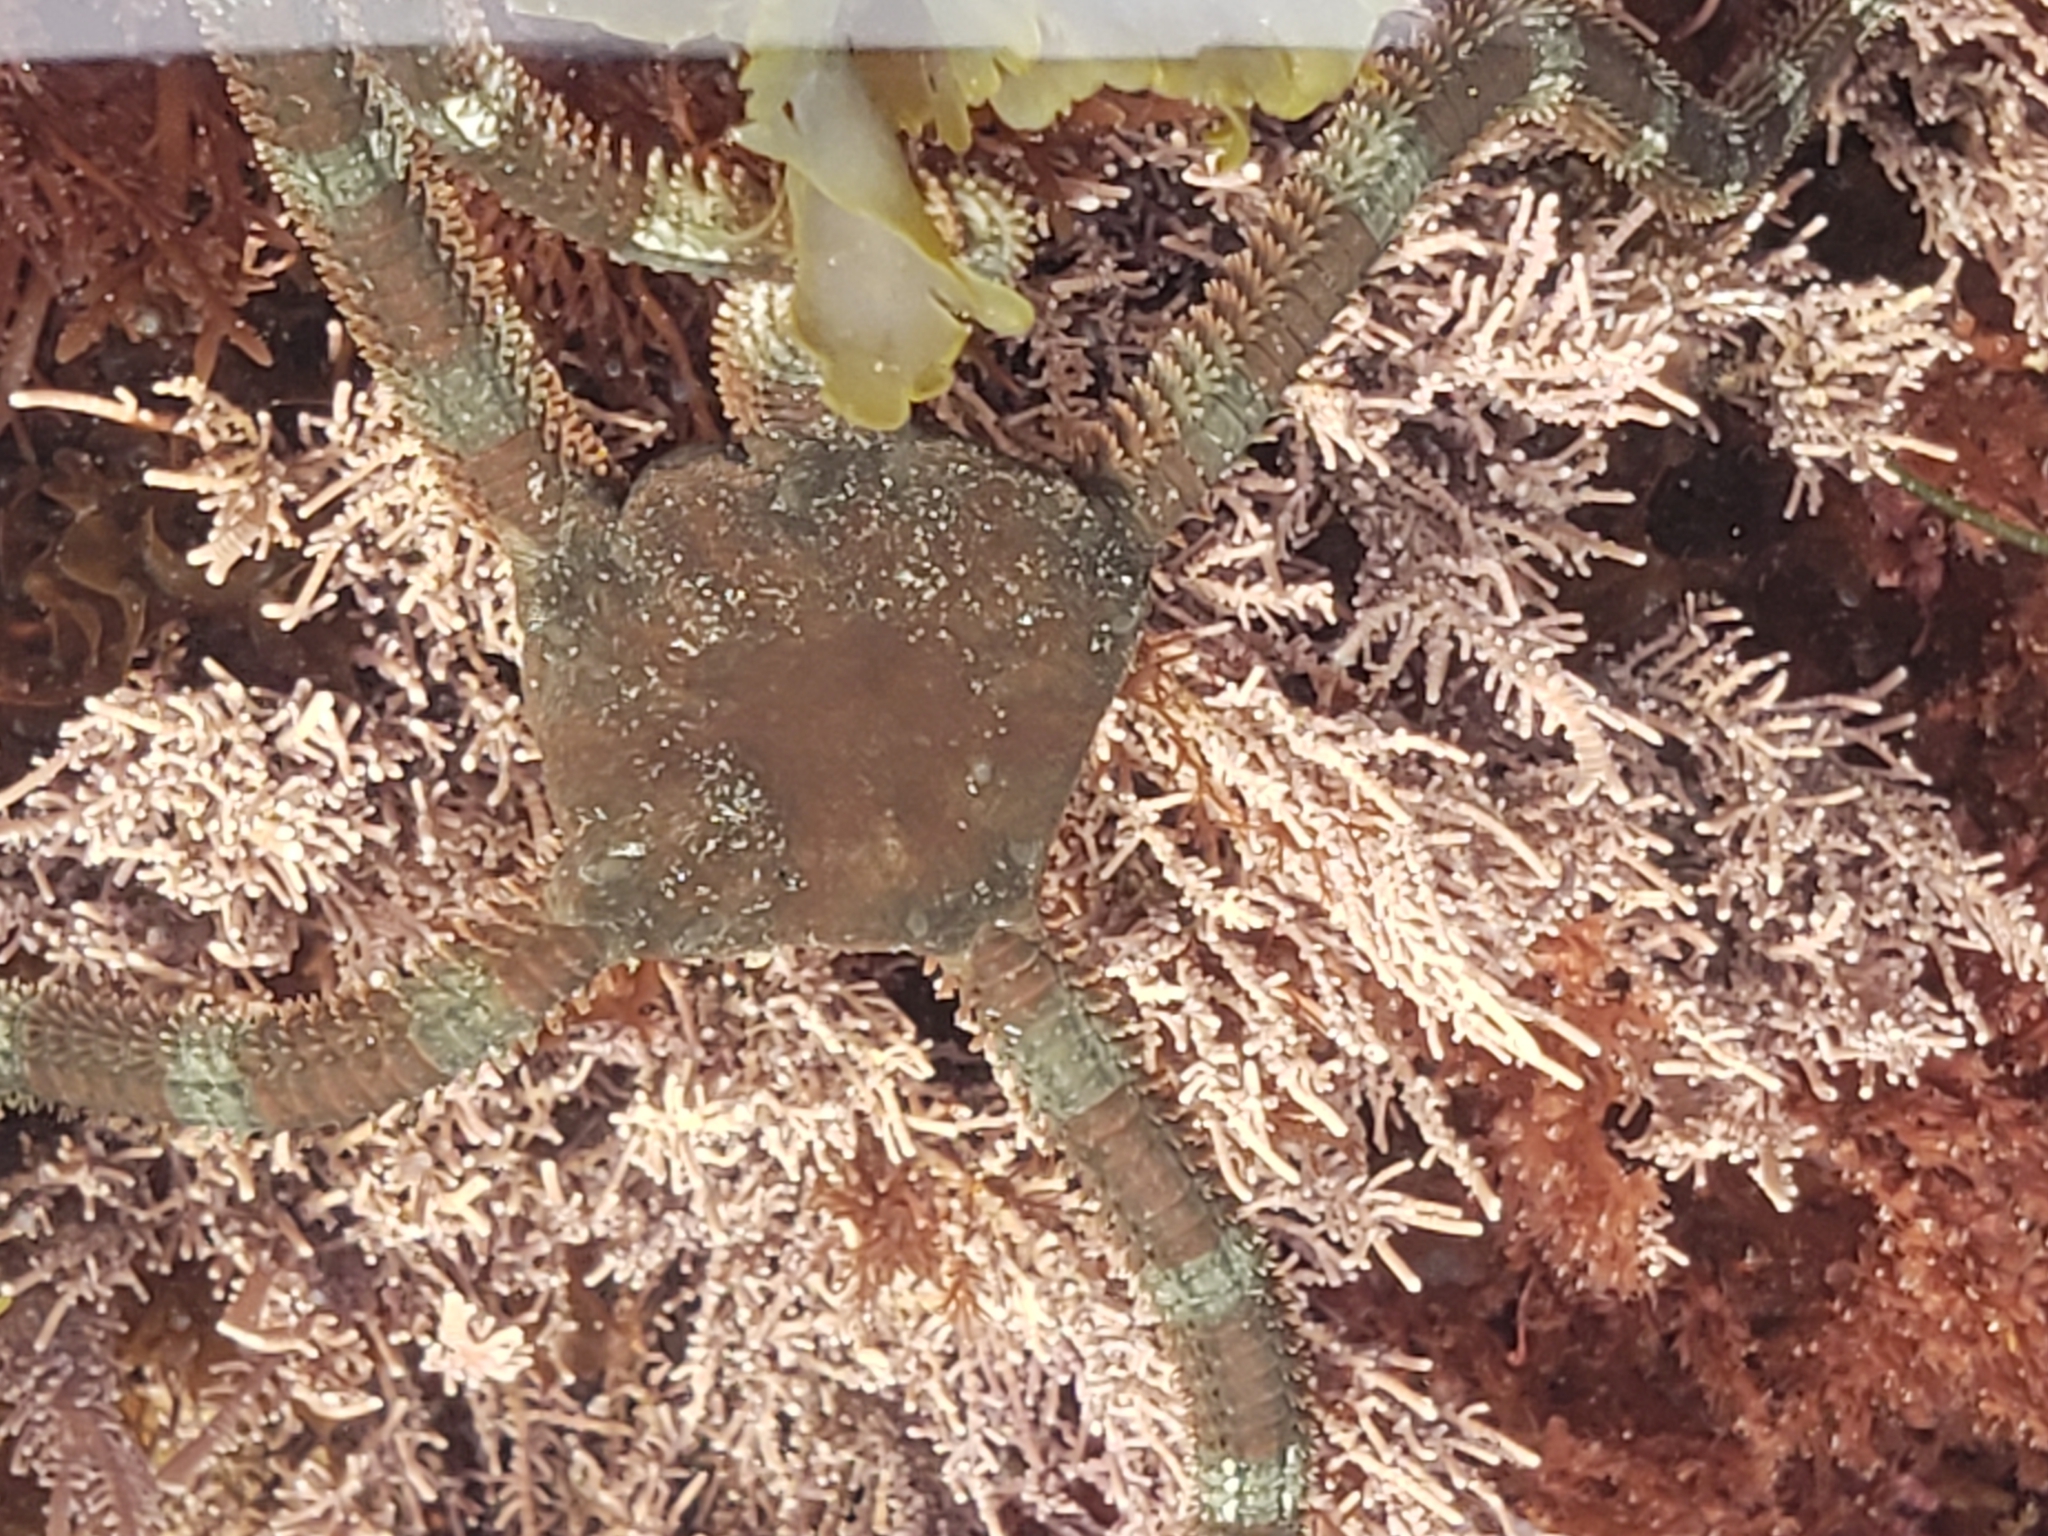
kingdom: Animalia
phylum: Echinodermata
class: Ophiuroidea
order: Ophiacanthida
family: Ophiodermatidae
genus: Ophioderma
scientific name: Ophioderma panamense
